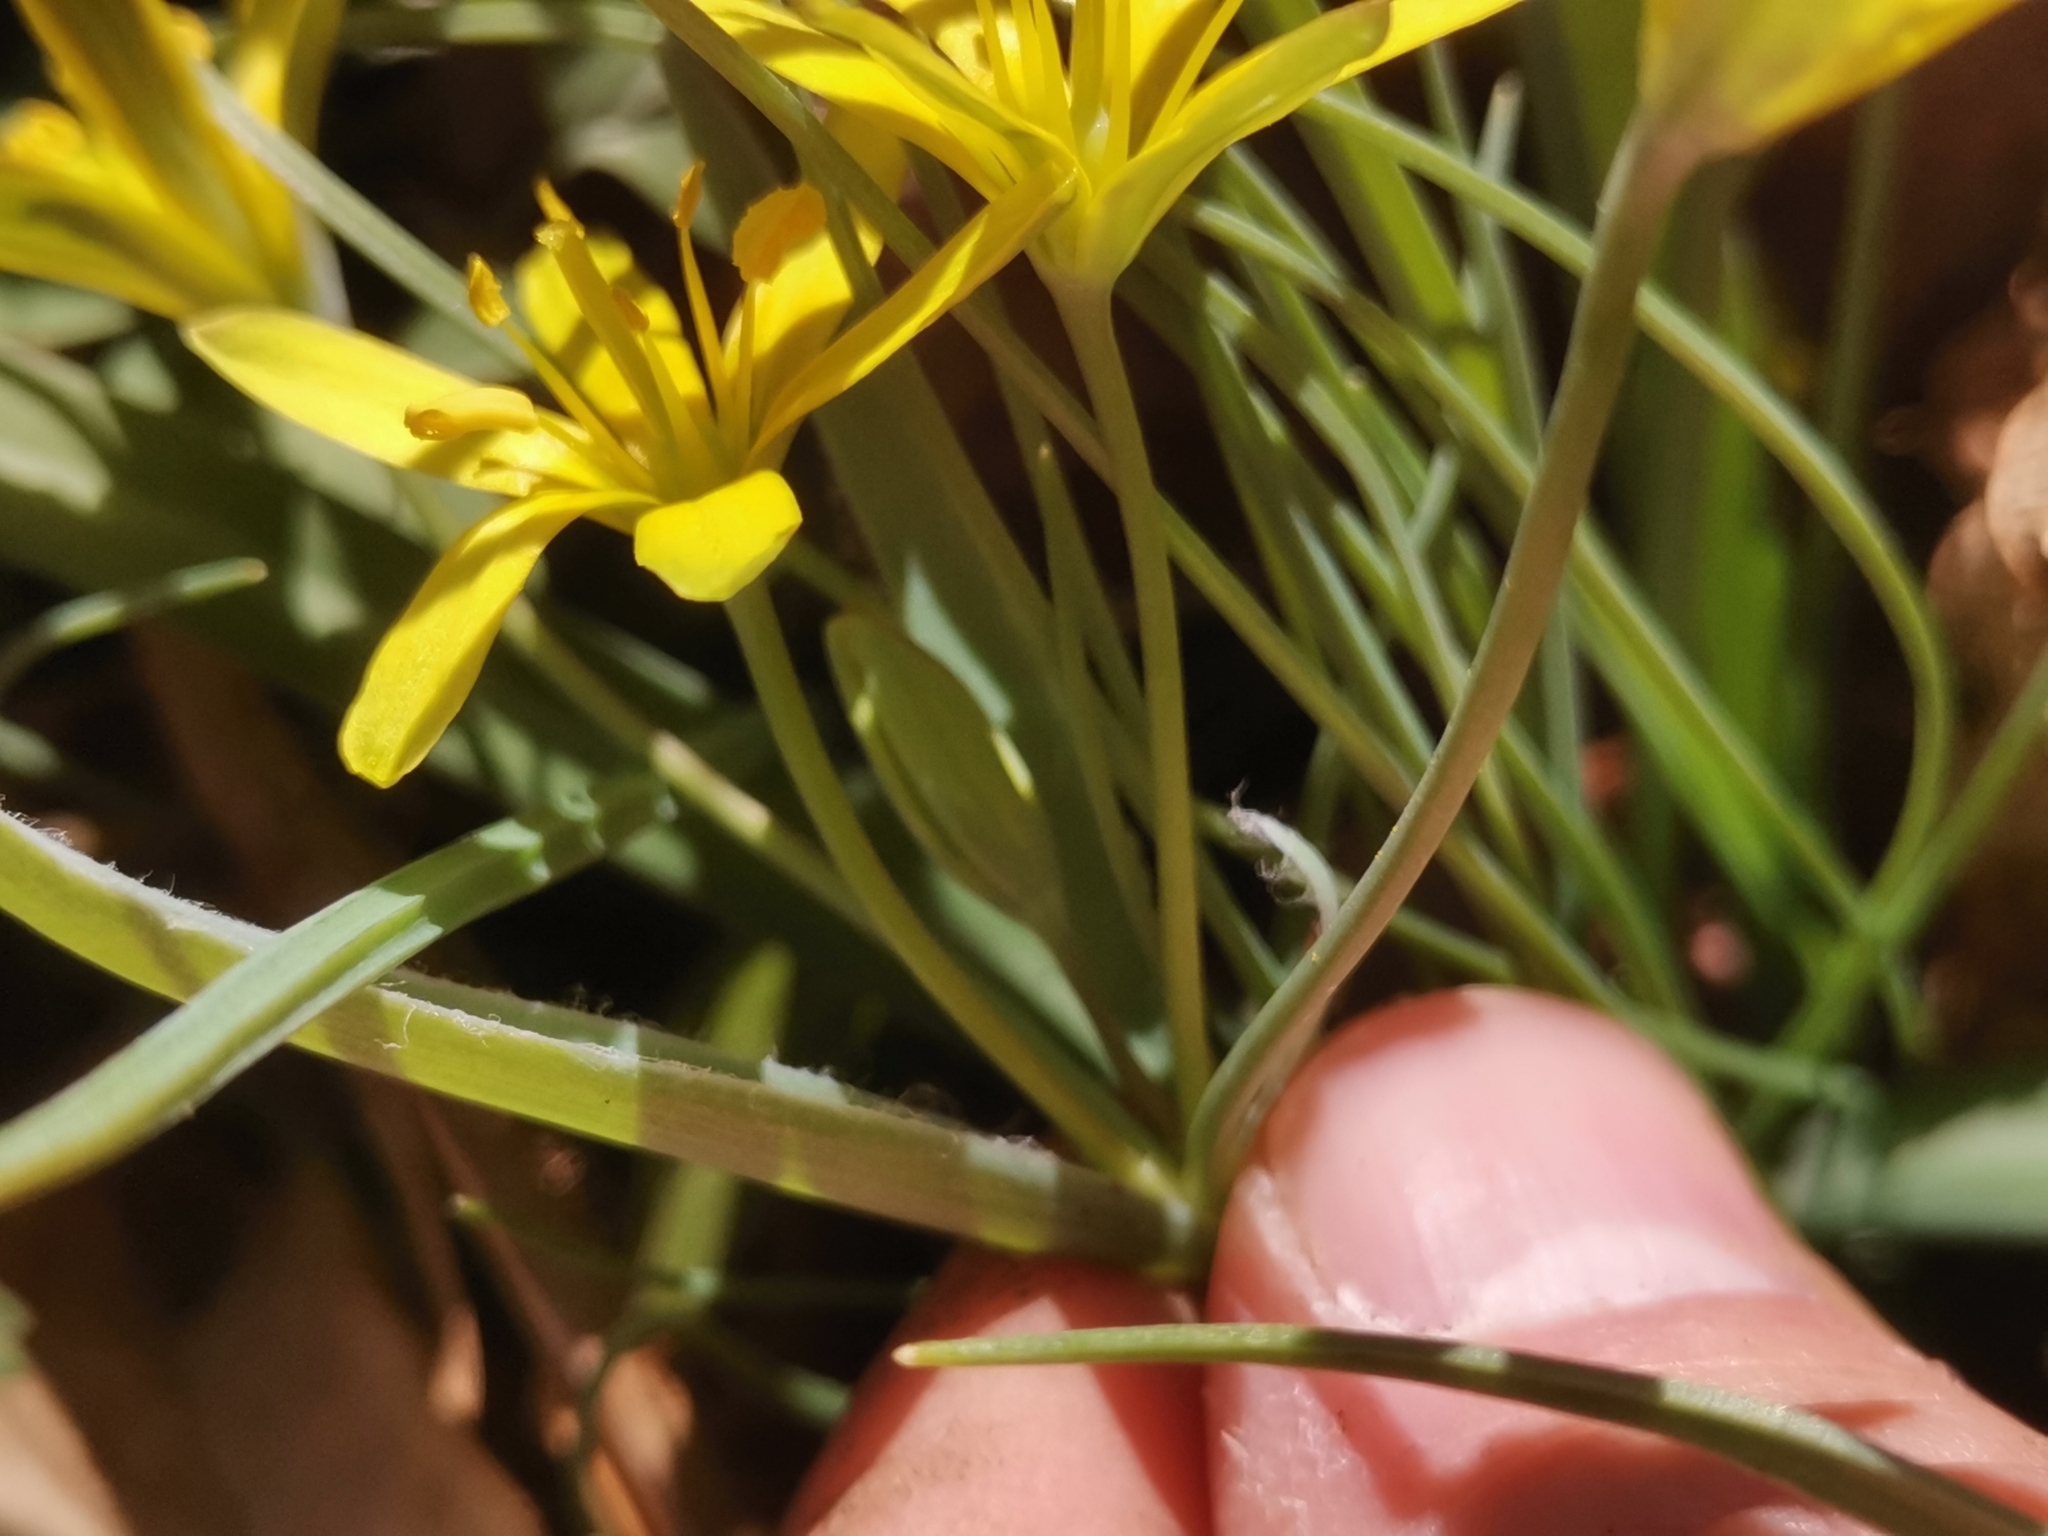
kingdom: Plantae
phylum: Tracheophyta
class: Liliopsida
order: Liliales
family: Liliaceae
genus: Gagea
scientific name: Gagea lutea
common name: Yellow star-of-bethlehem
